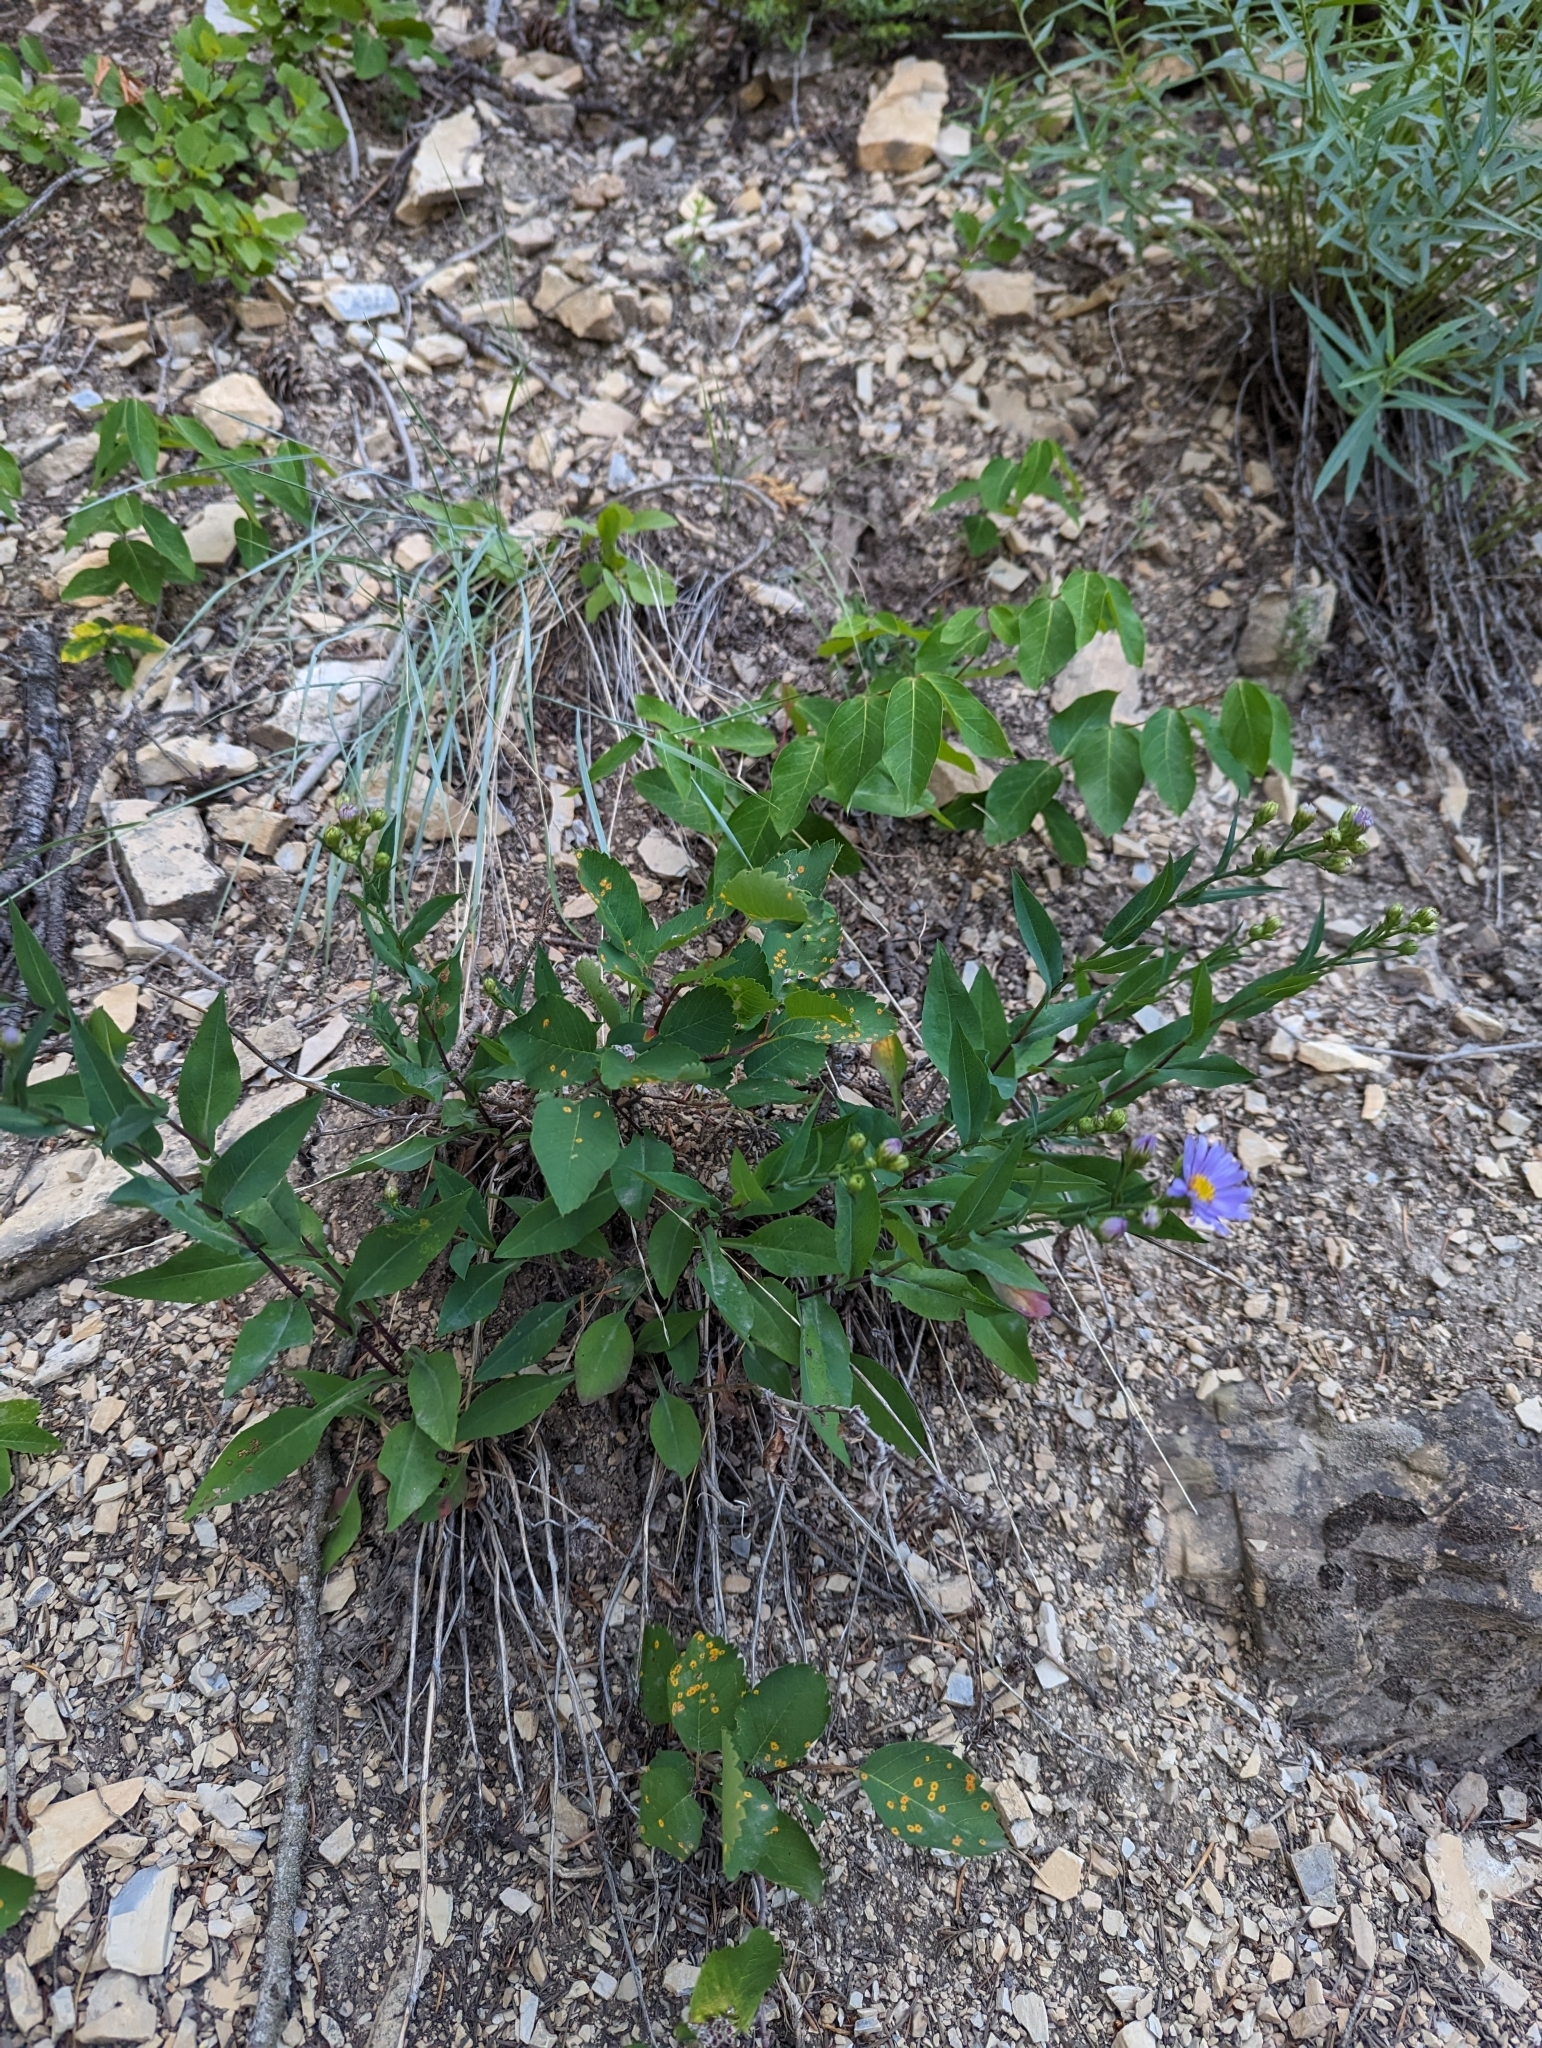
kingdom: Plantae
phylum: Tracheophyta
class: Magnoliopsida
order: Asterales
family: Asteraceae
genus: Symphyotrichum
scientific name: Symphyotrichum ciliolatum
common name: Fringed blue aster
